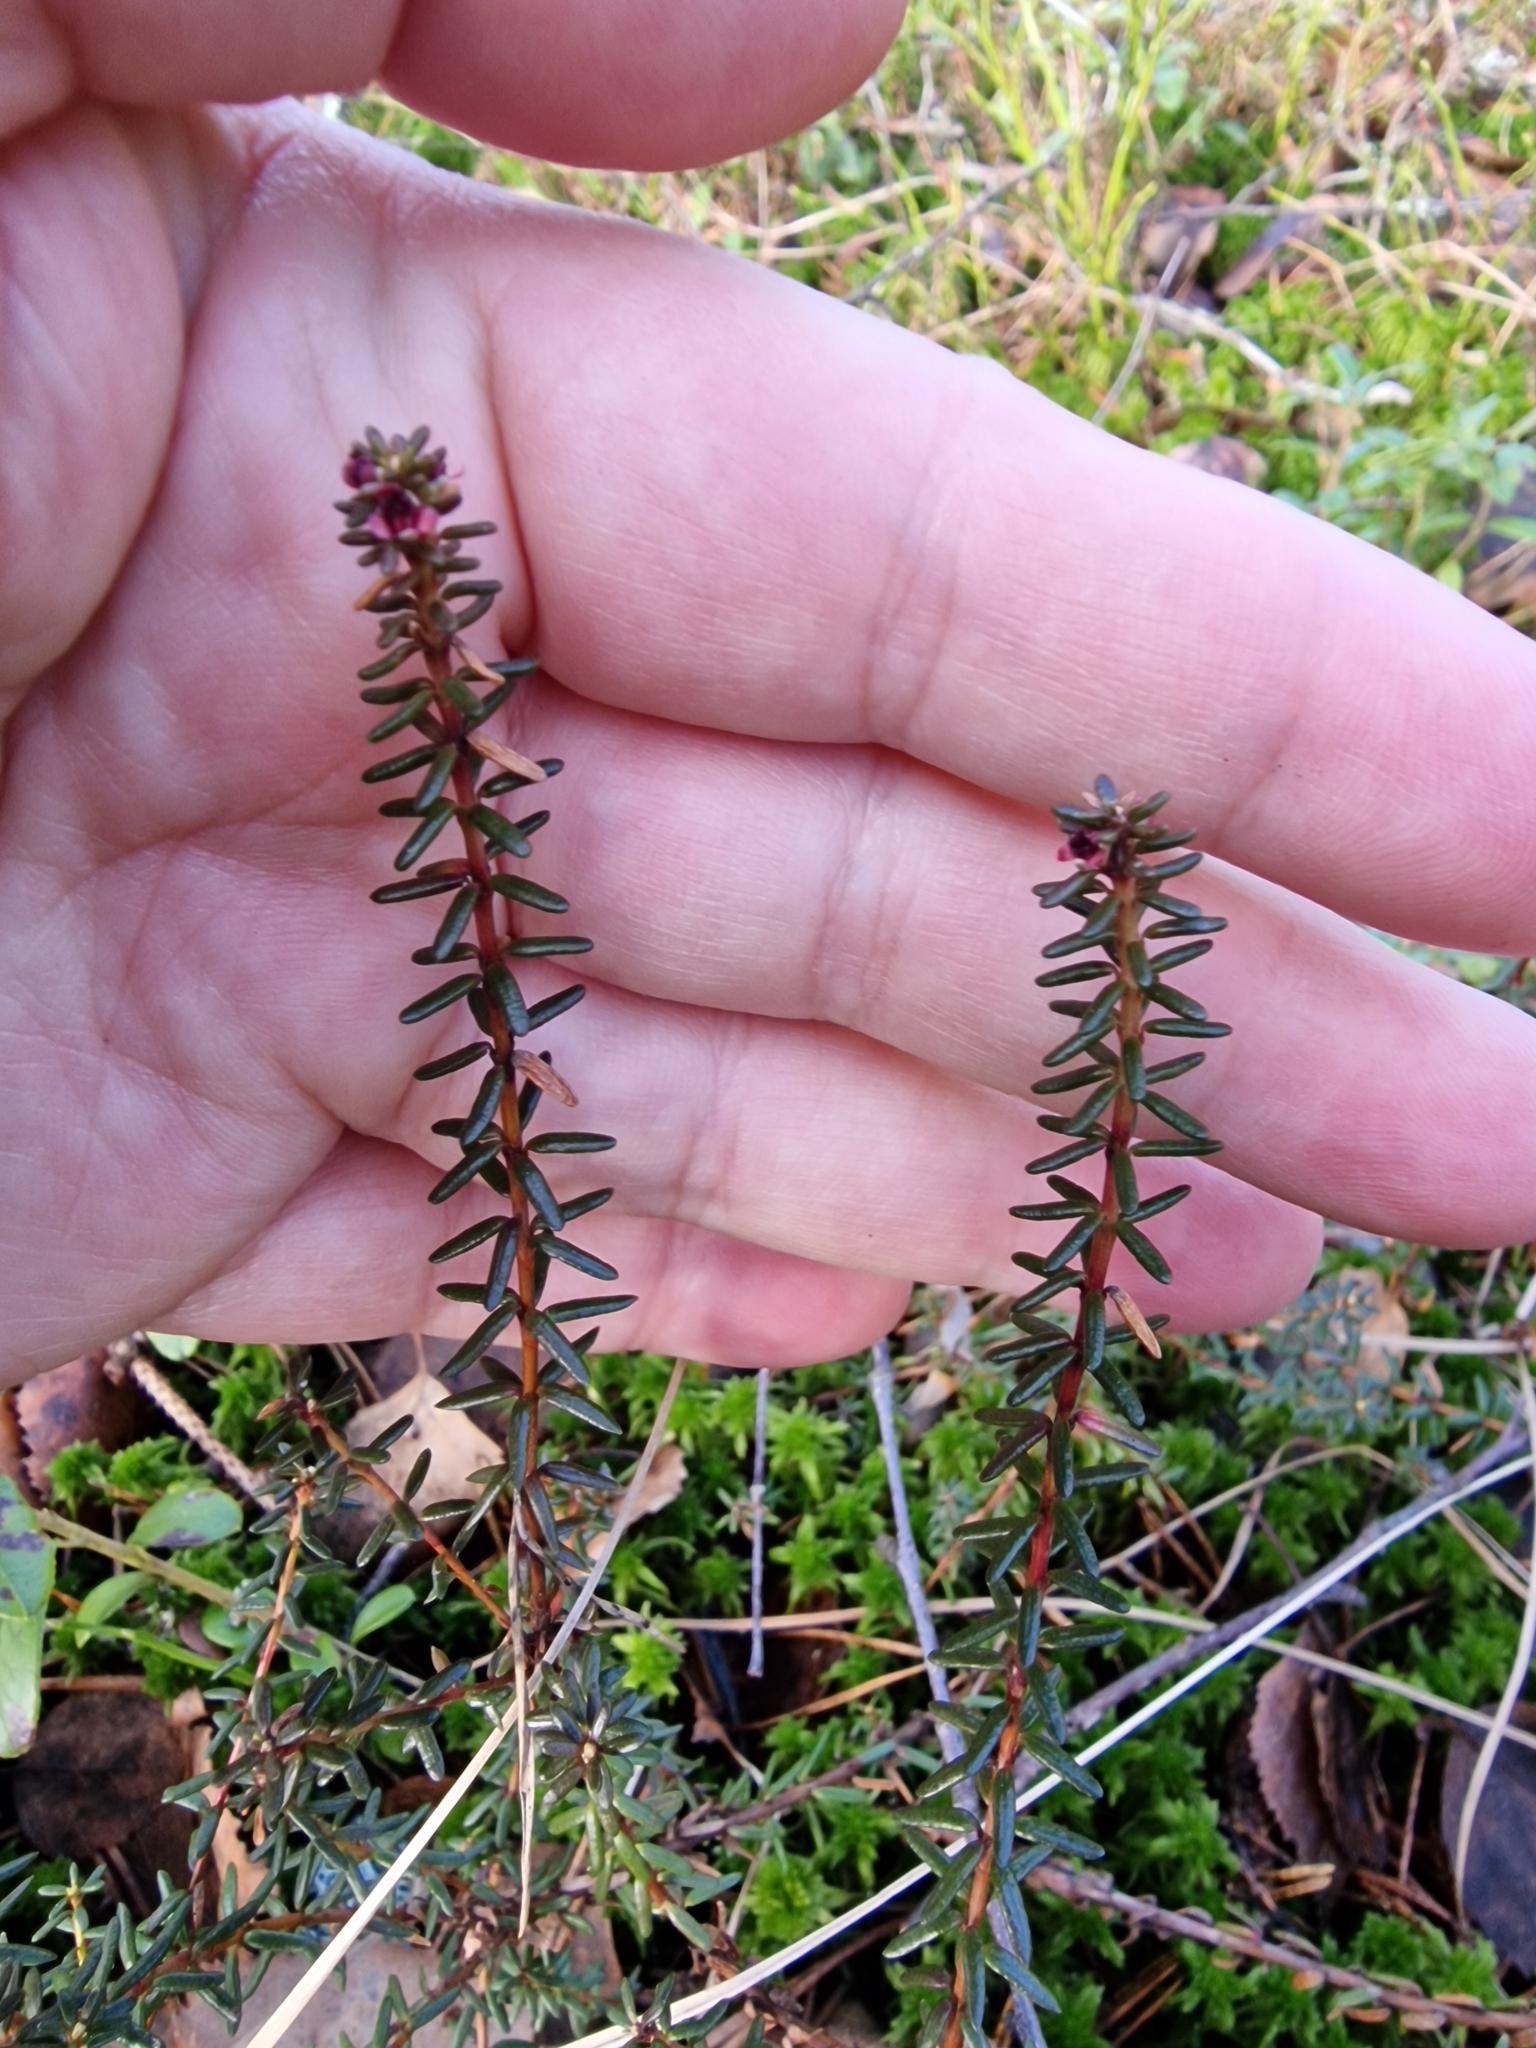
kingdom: Plantae
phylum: Tracheophyta
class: Magnoliopsida
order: Ericales
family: Ericaceae
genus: Empetrum
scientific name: Empetrum nigrum
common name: Black crowberry
